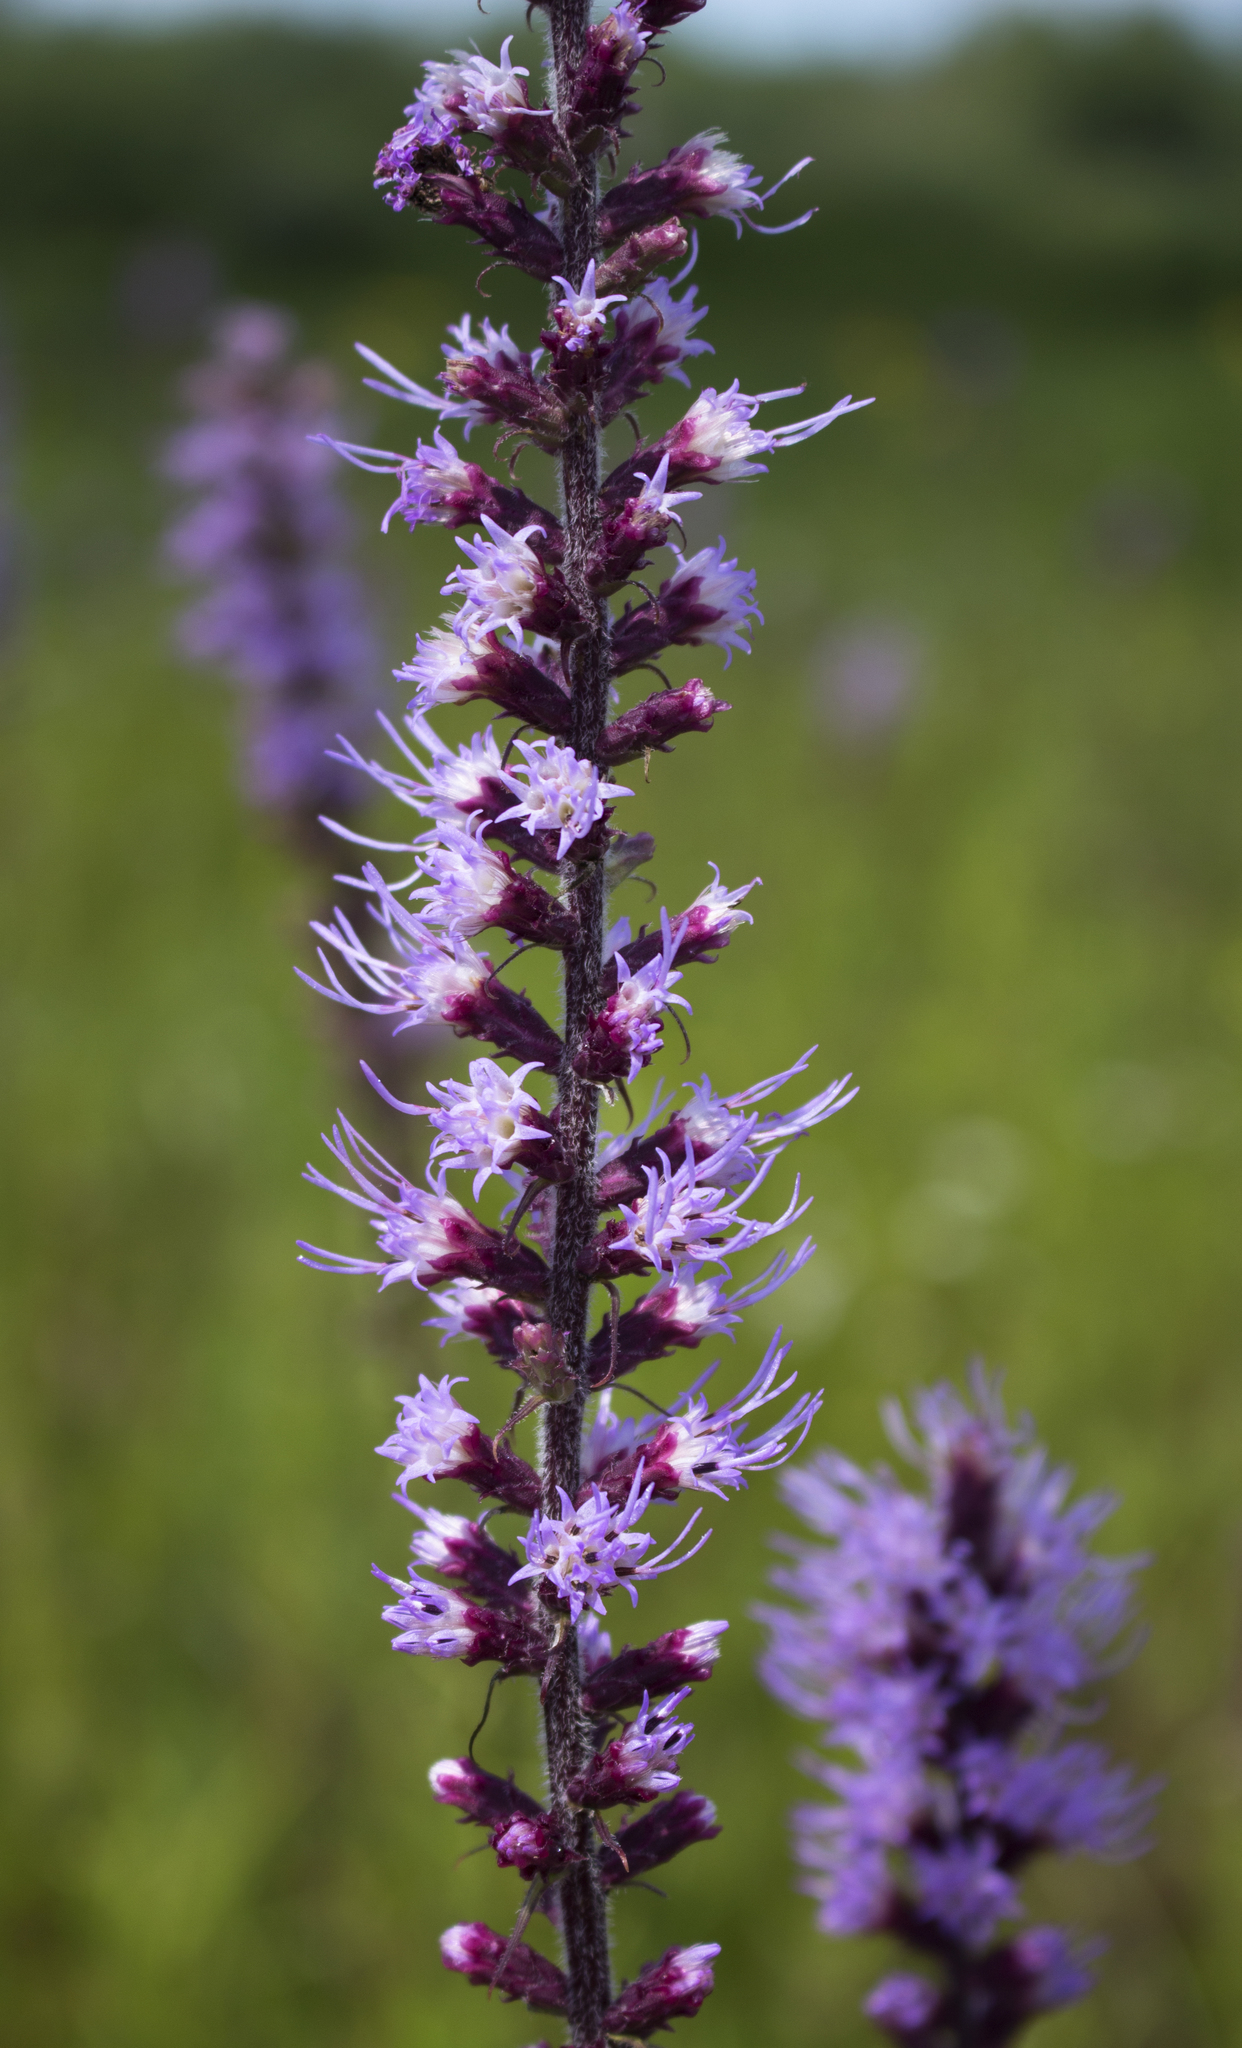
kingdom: Plantae
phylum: Tracheophyta
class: Magnoliopsida
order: Asterales
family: Asteraceae
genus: Liatris
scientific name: Liatris pycnostachya
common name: Cattail gayfeather
